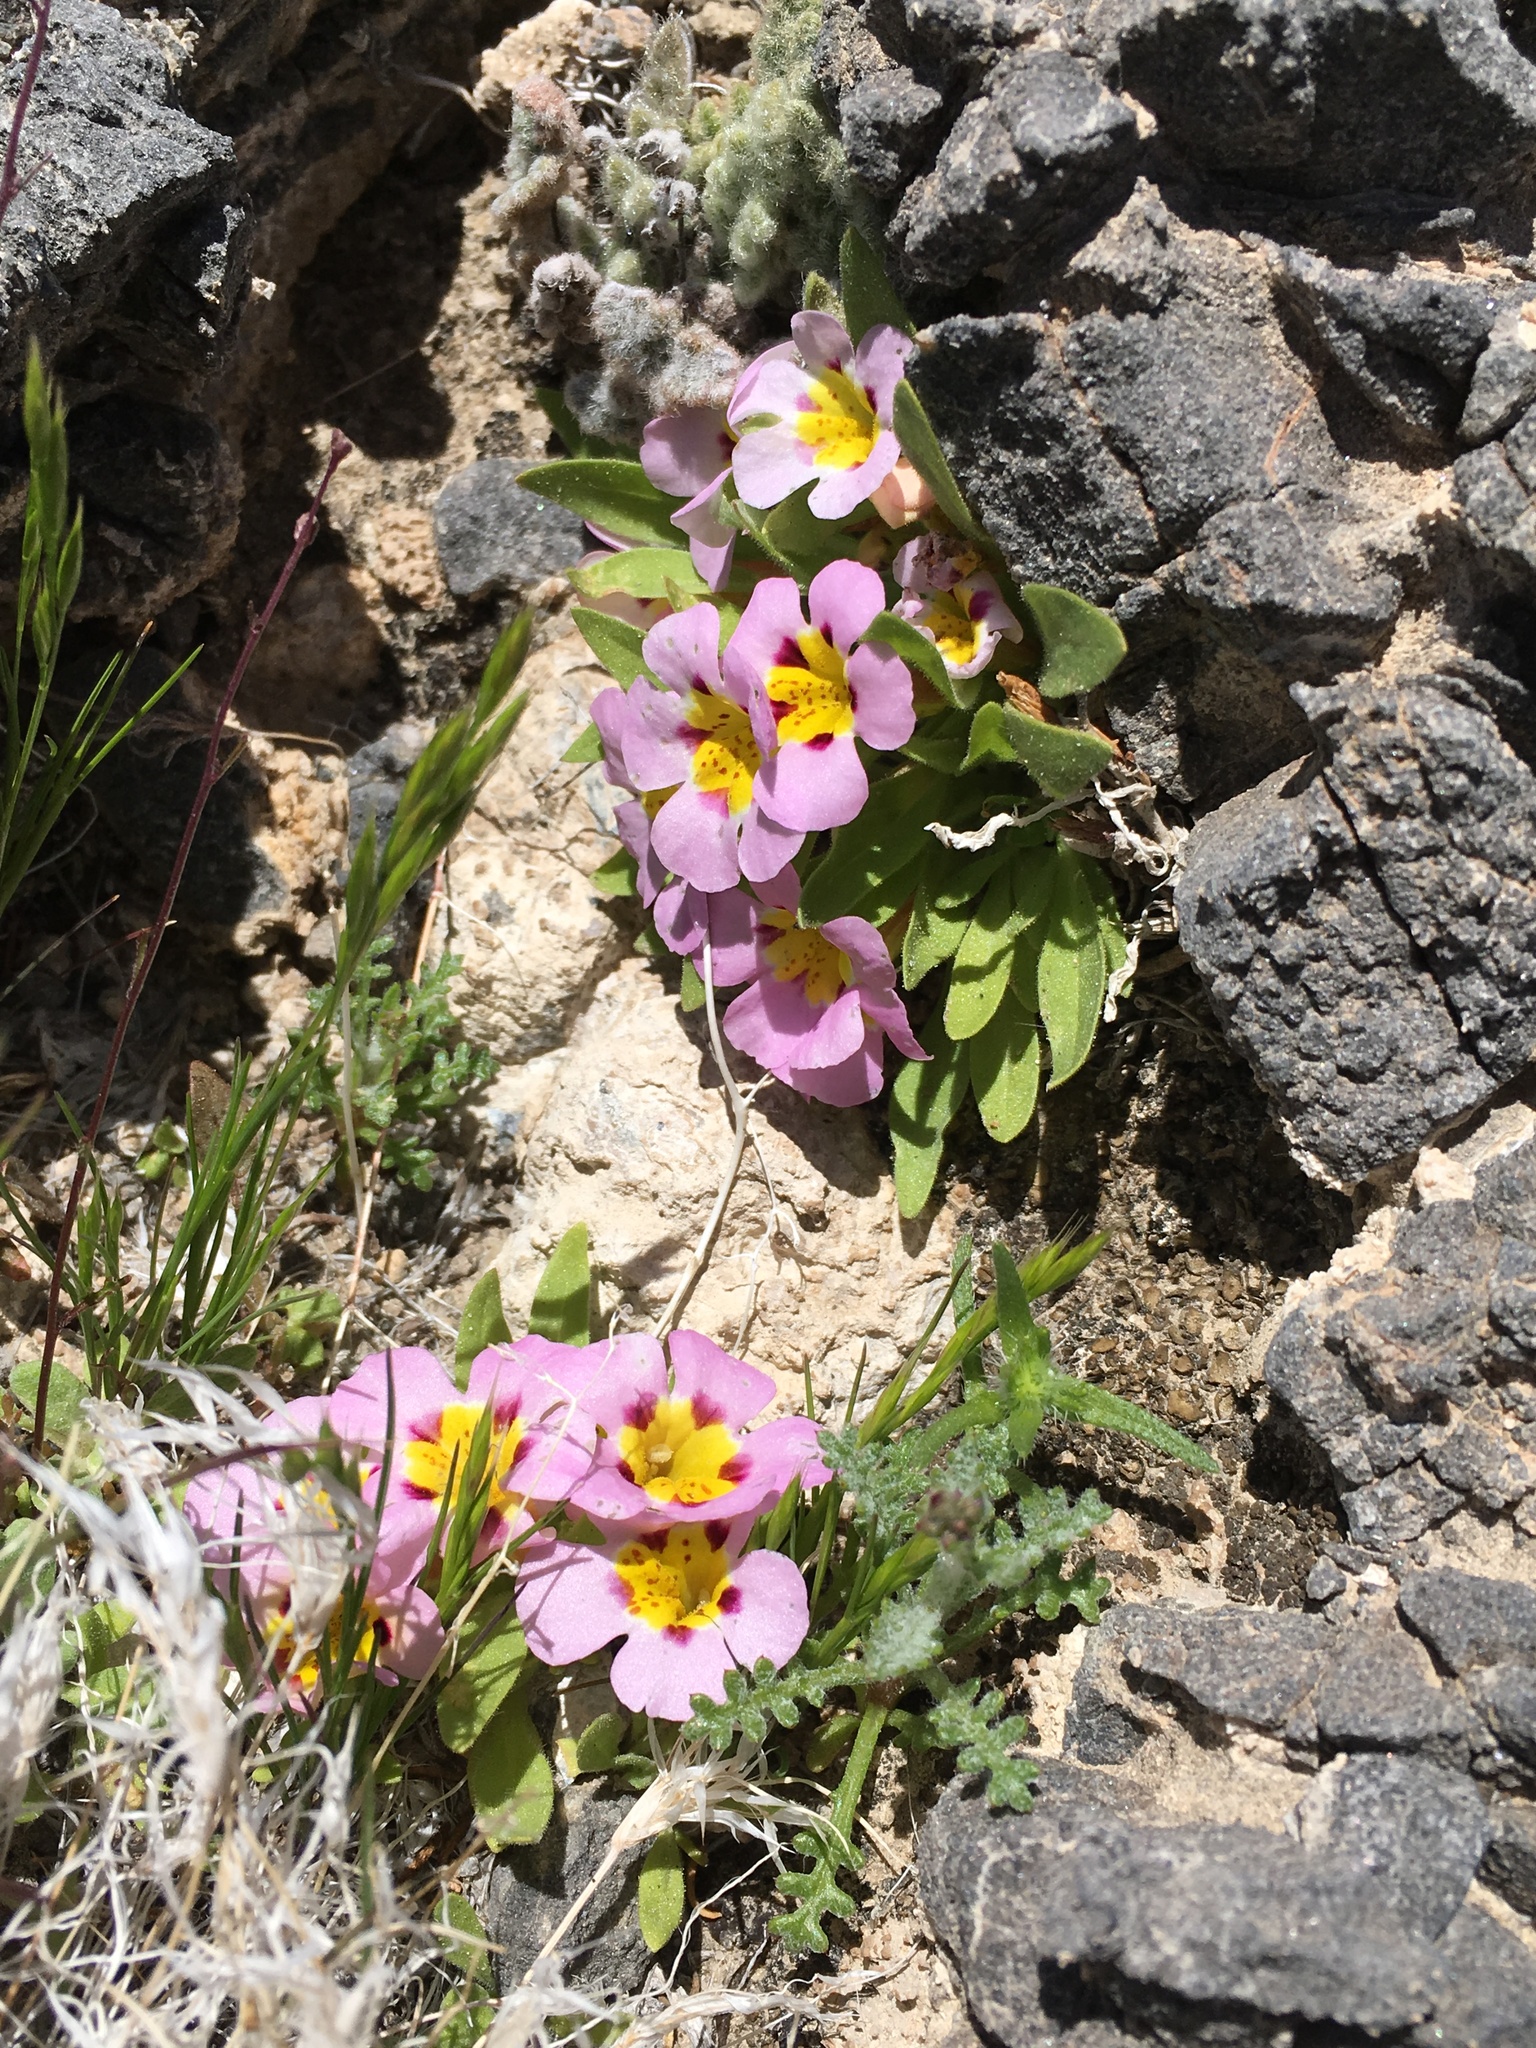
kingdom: Plantae
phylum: Tracheophyta
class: Magnoliopsida
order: Lamiales
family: Phrymaceae
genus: Diplacus
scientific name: Diplacus rupicola
